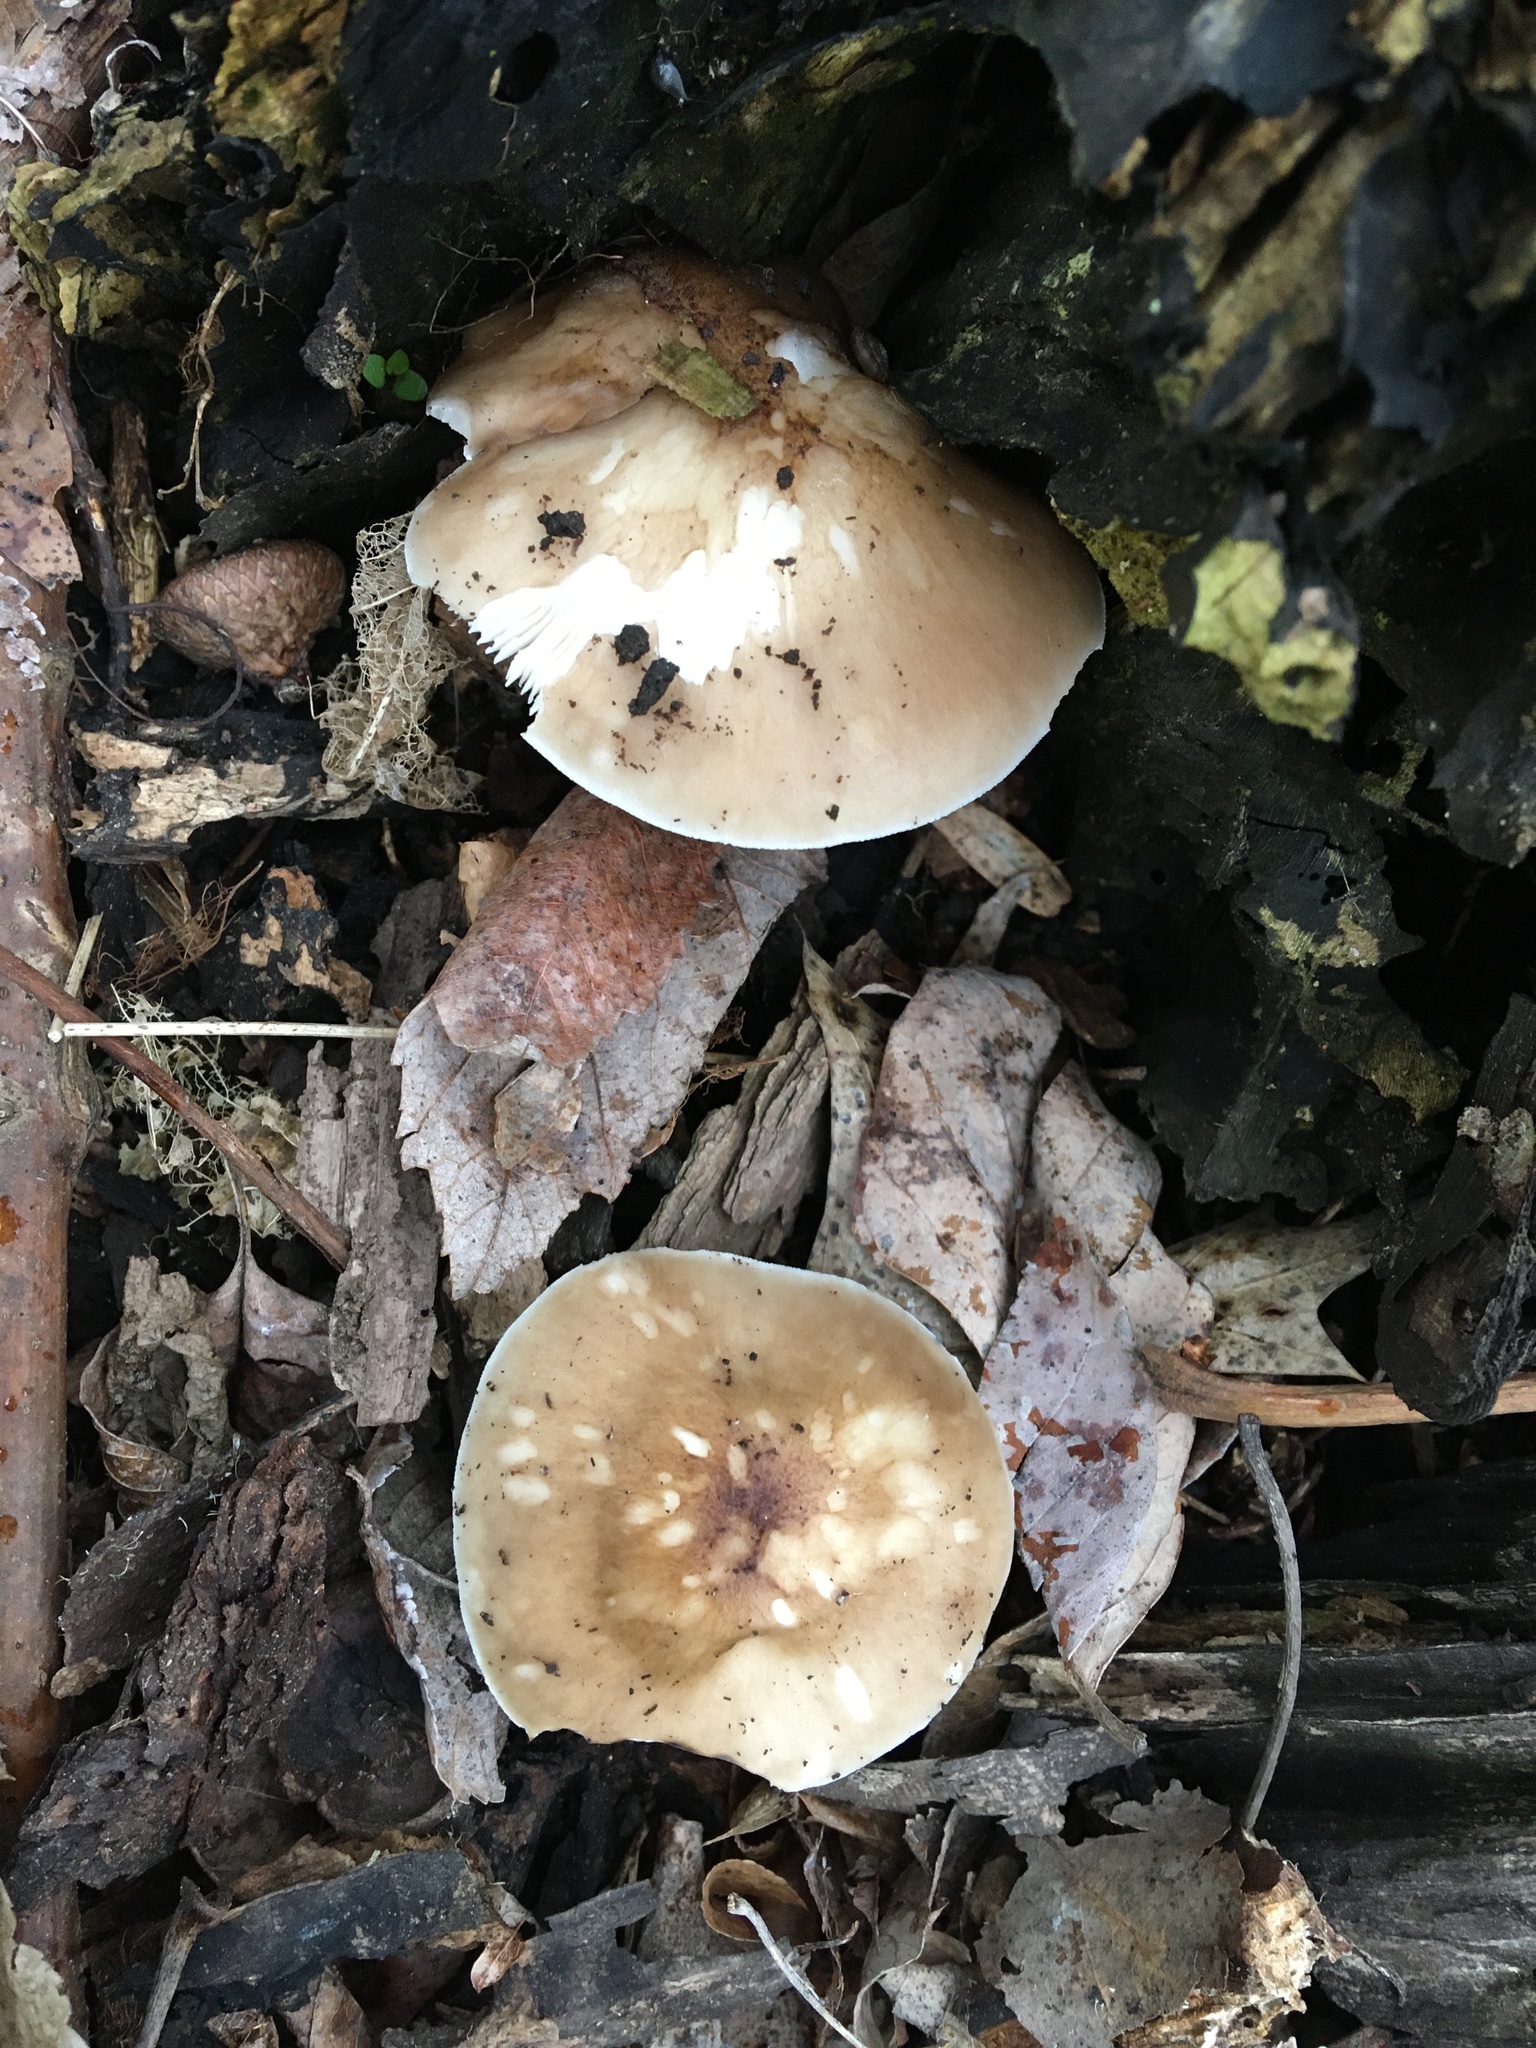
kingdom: Fungi
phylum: Basidiomycota
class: Agaricomycetes
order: Agaricales
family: Pluteaceae
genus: Pluteus
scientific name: Pluteus cervinus
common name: Deer shield
